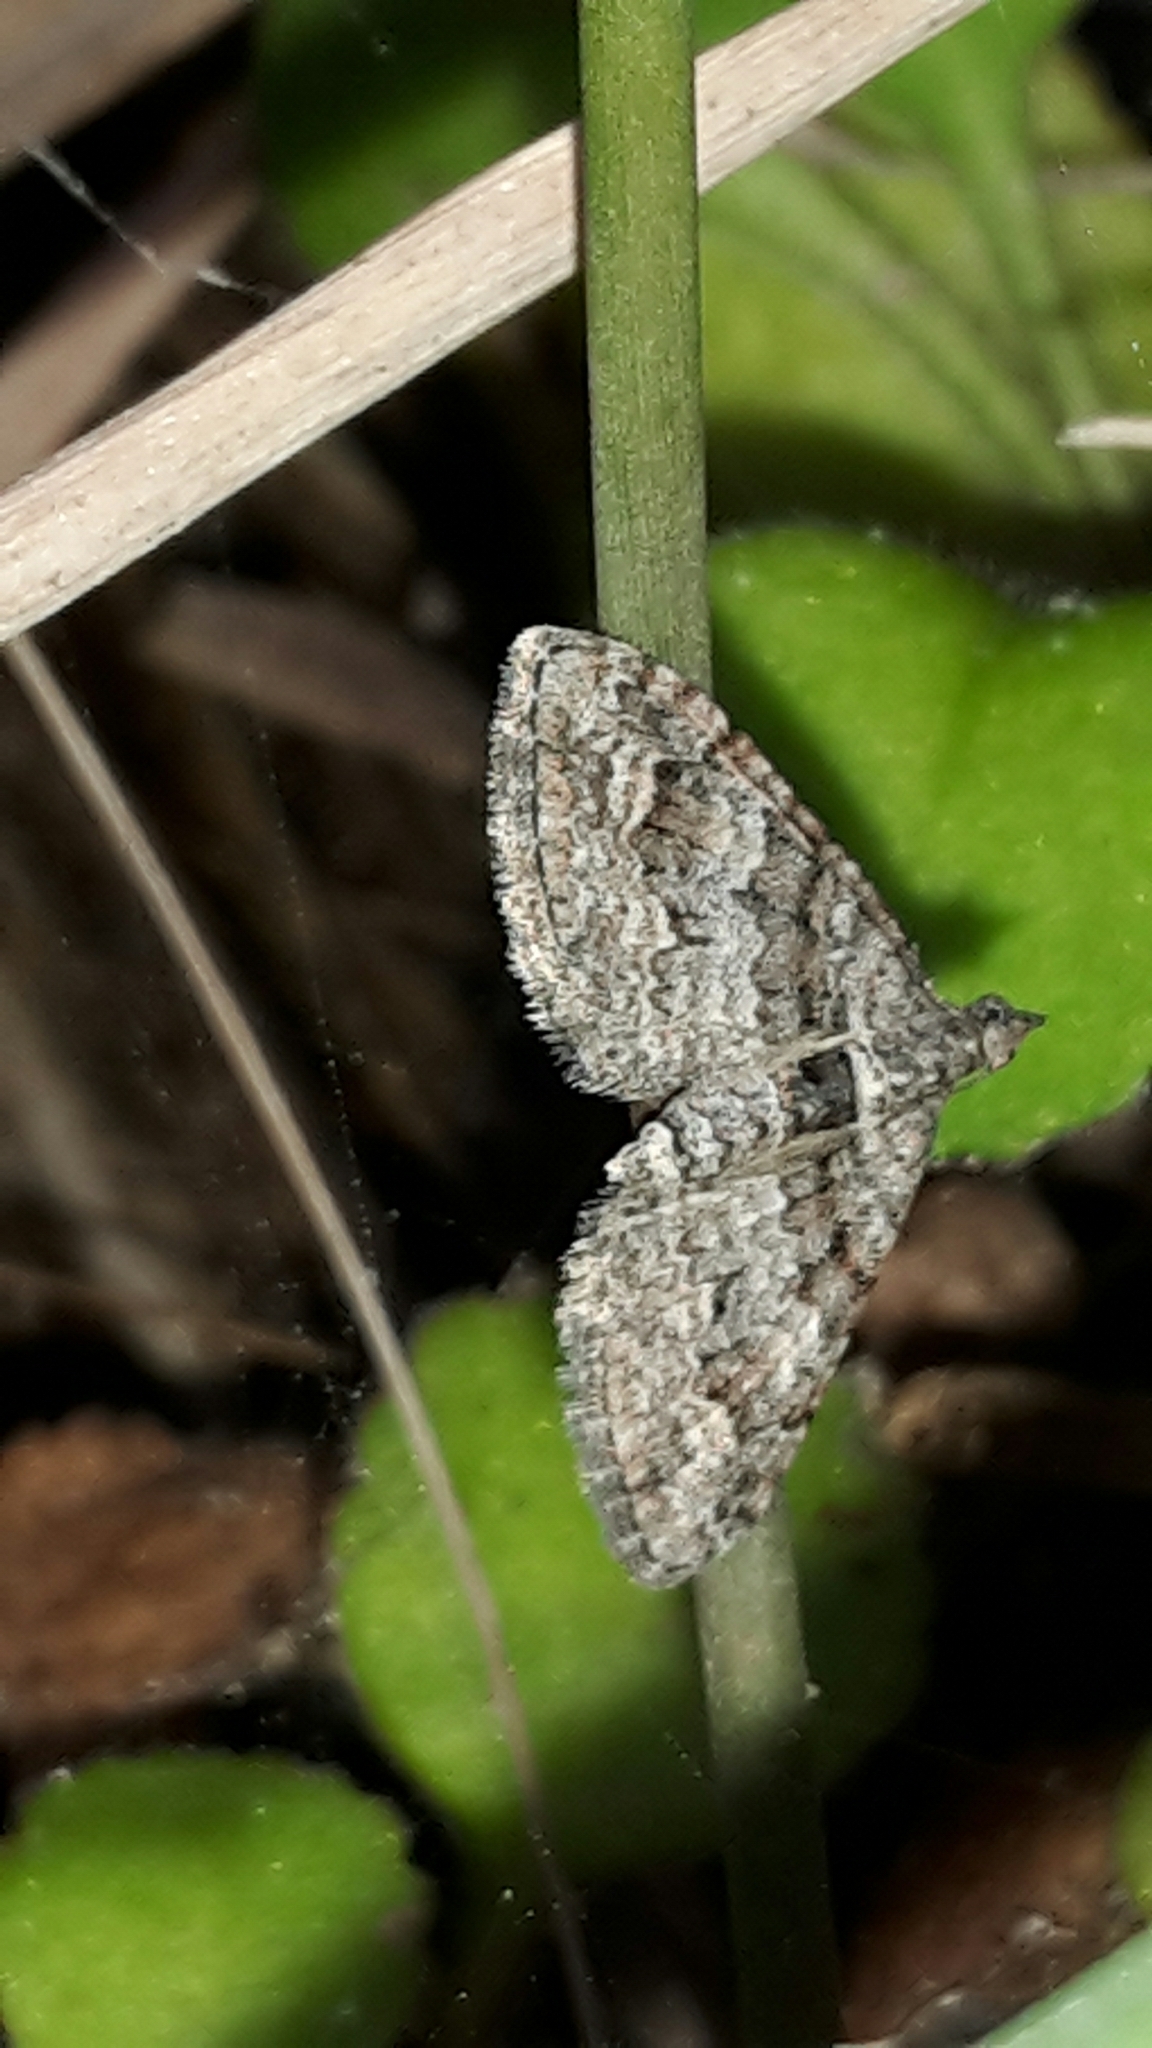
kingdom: Animalia
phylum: Arthropoda
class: Insecta
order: Lepidoptera
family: Geometridae
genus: Phrissogonus
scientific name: Phrissogonus laticostata
